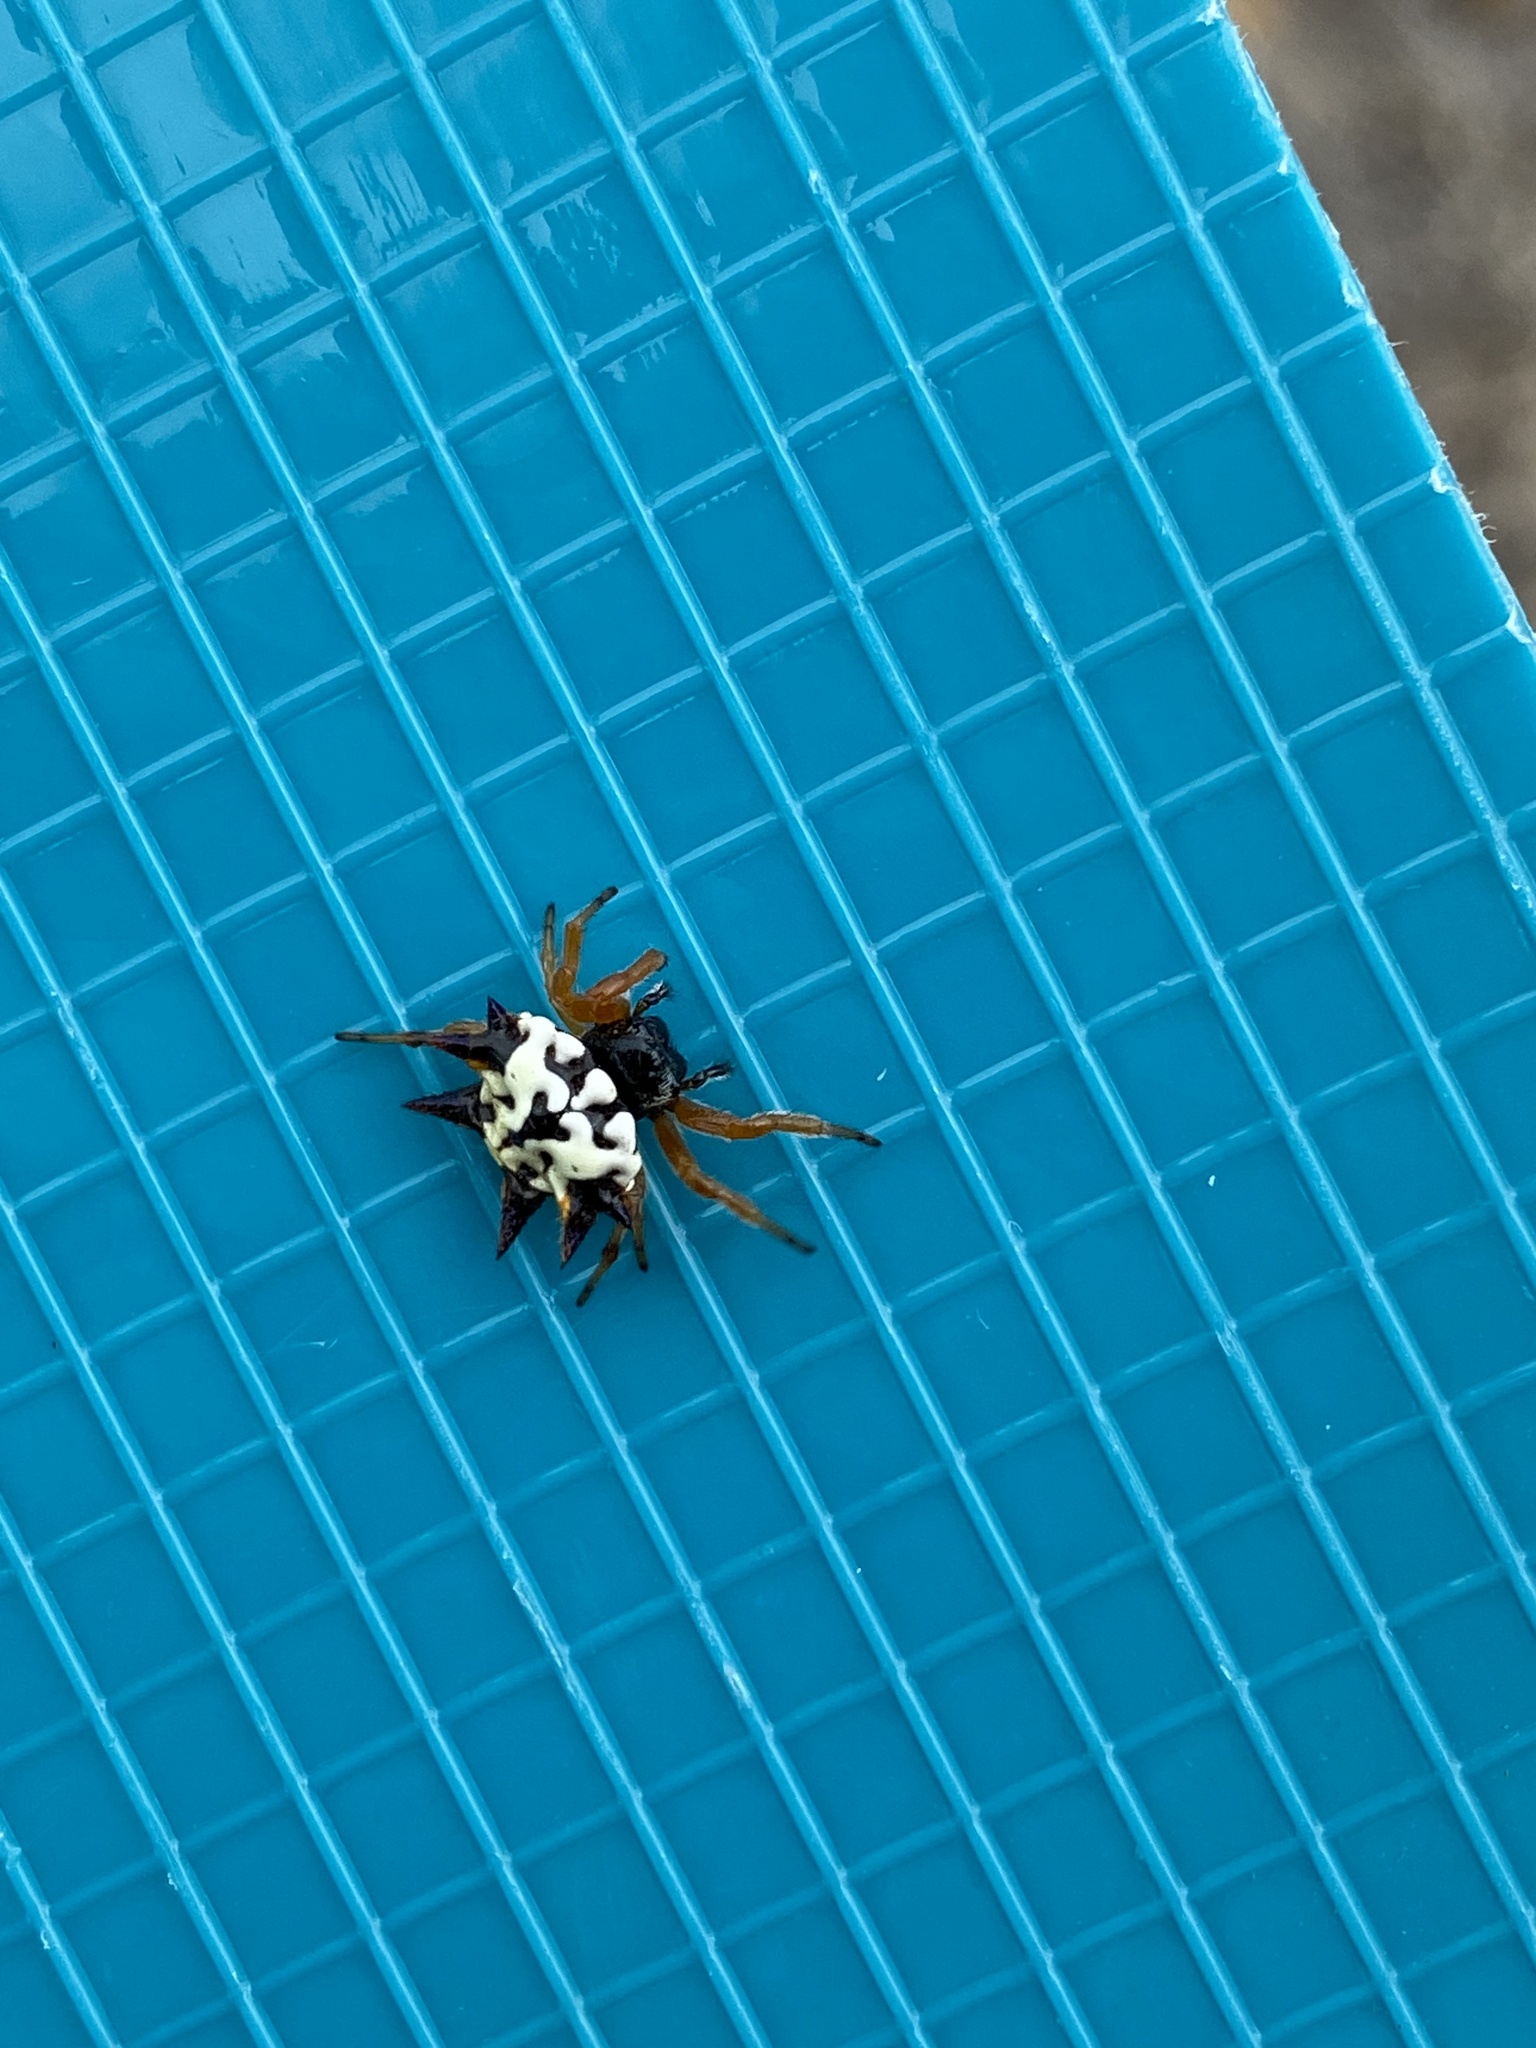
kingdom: Animalia
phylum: Arthropoda
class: Arachnida
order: Araneae
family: Araneidae
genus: Austracantha
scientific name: Austracantha minax
